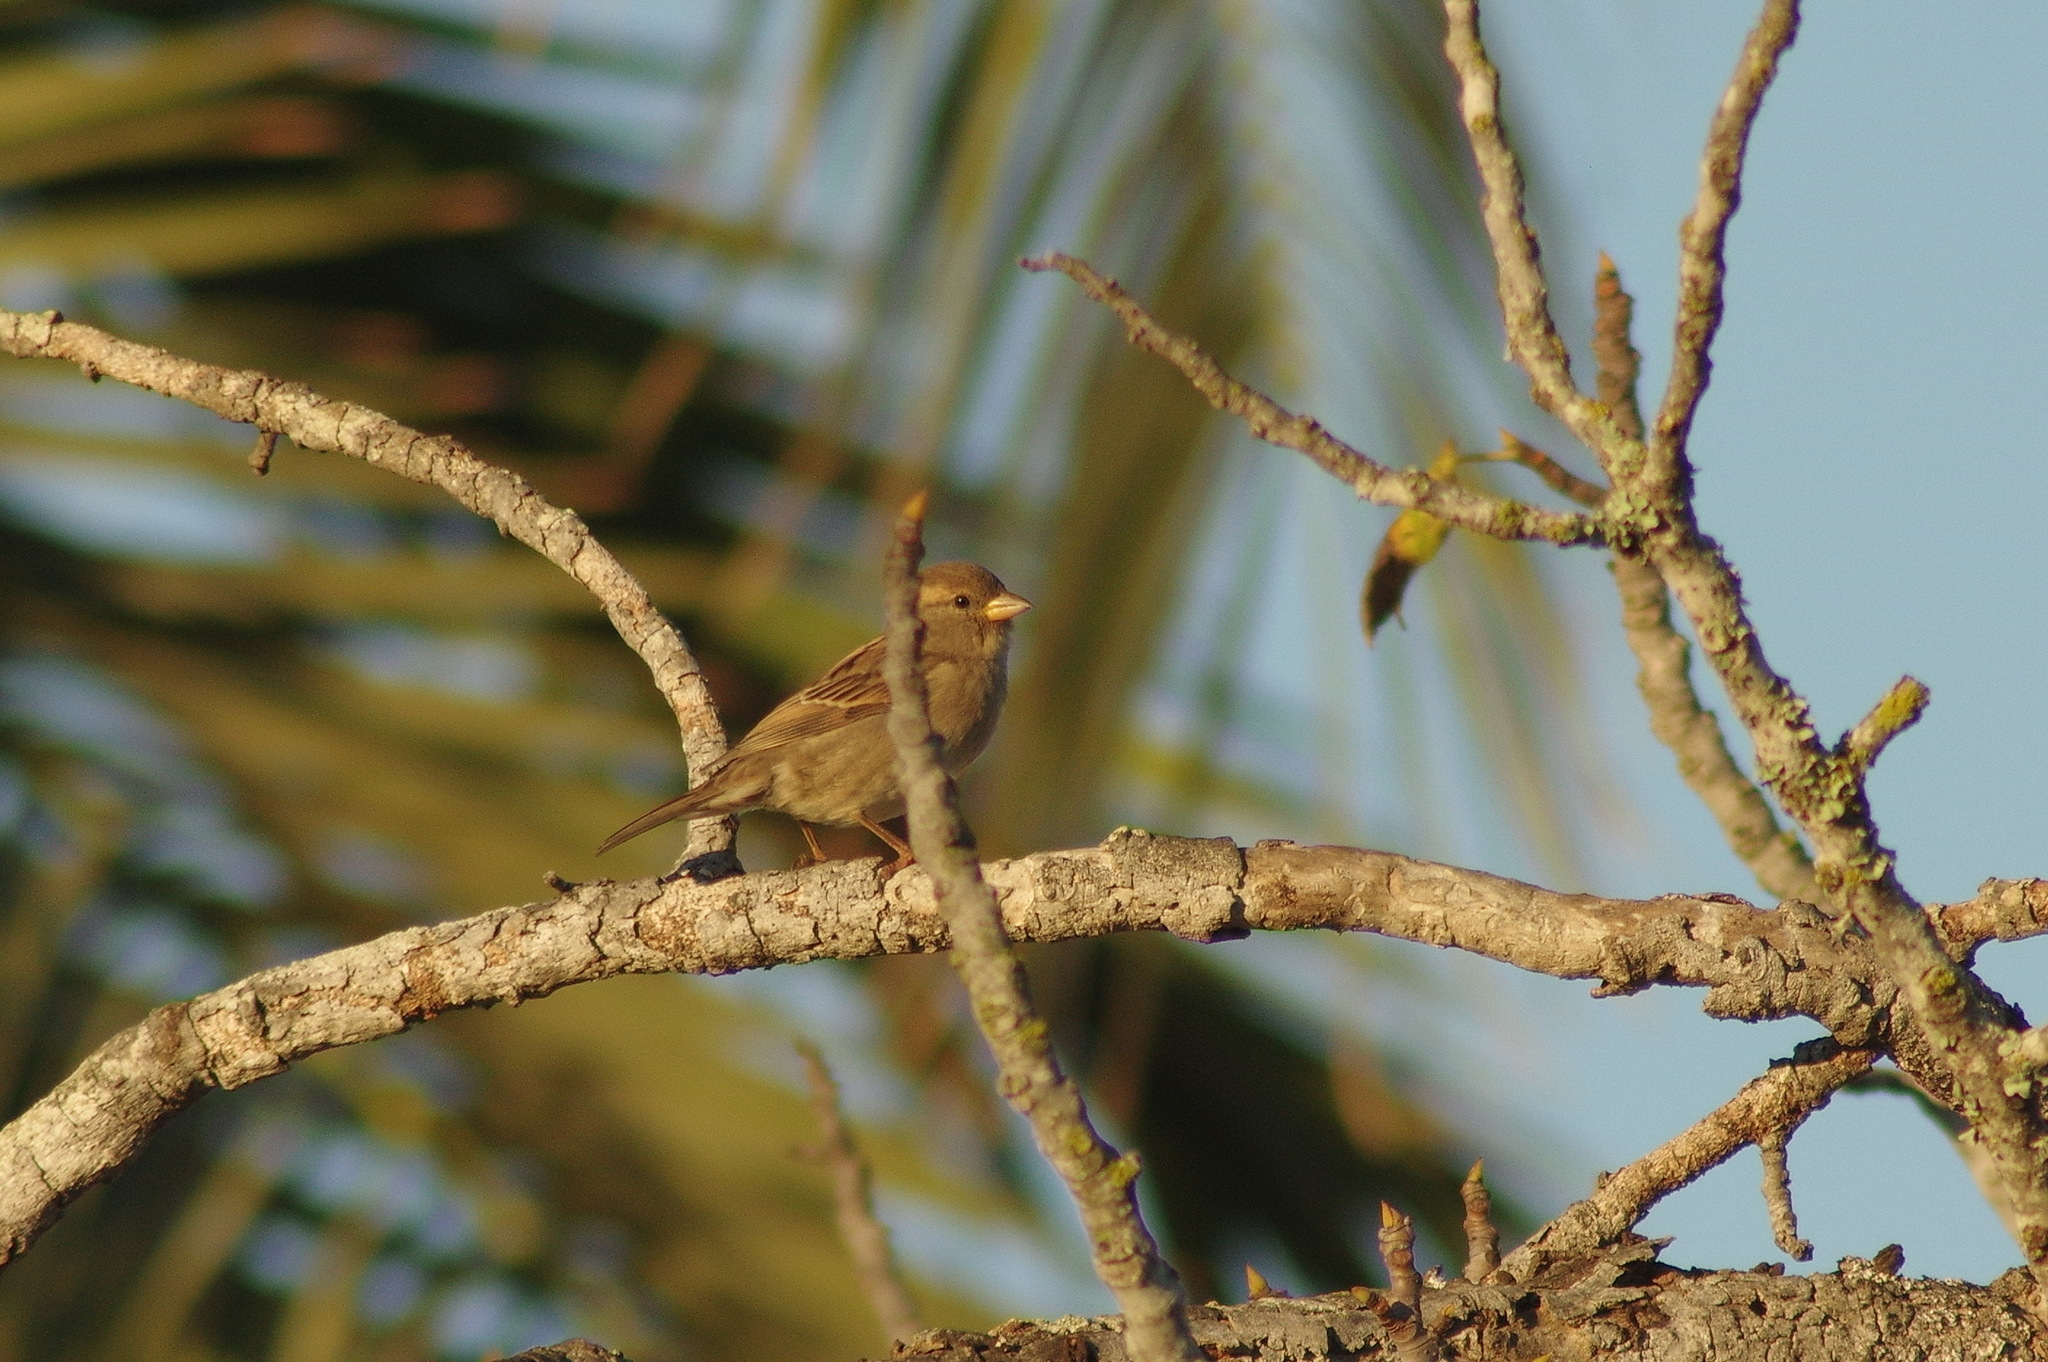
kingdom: Animalia
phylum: Chordata
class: Aves
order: Passeriformes
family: Passeridae
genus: Passer
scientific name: Passer domesticus
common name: House sparrow
